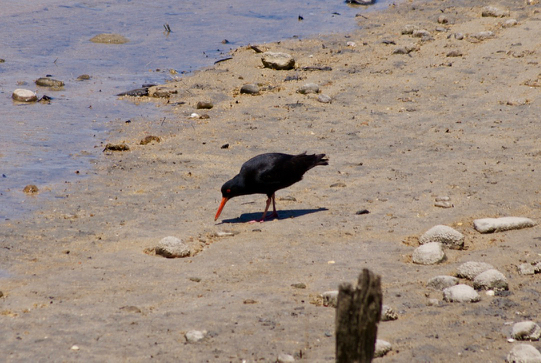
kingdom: Animalia
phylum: Chordata
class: Aves
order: Charadriiformes
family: Haematopodidae
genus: Haematopus
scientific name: Haematopus unicolor
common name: Variable oystercatcher
